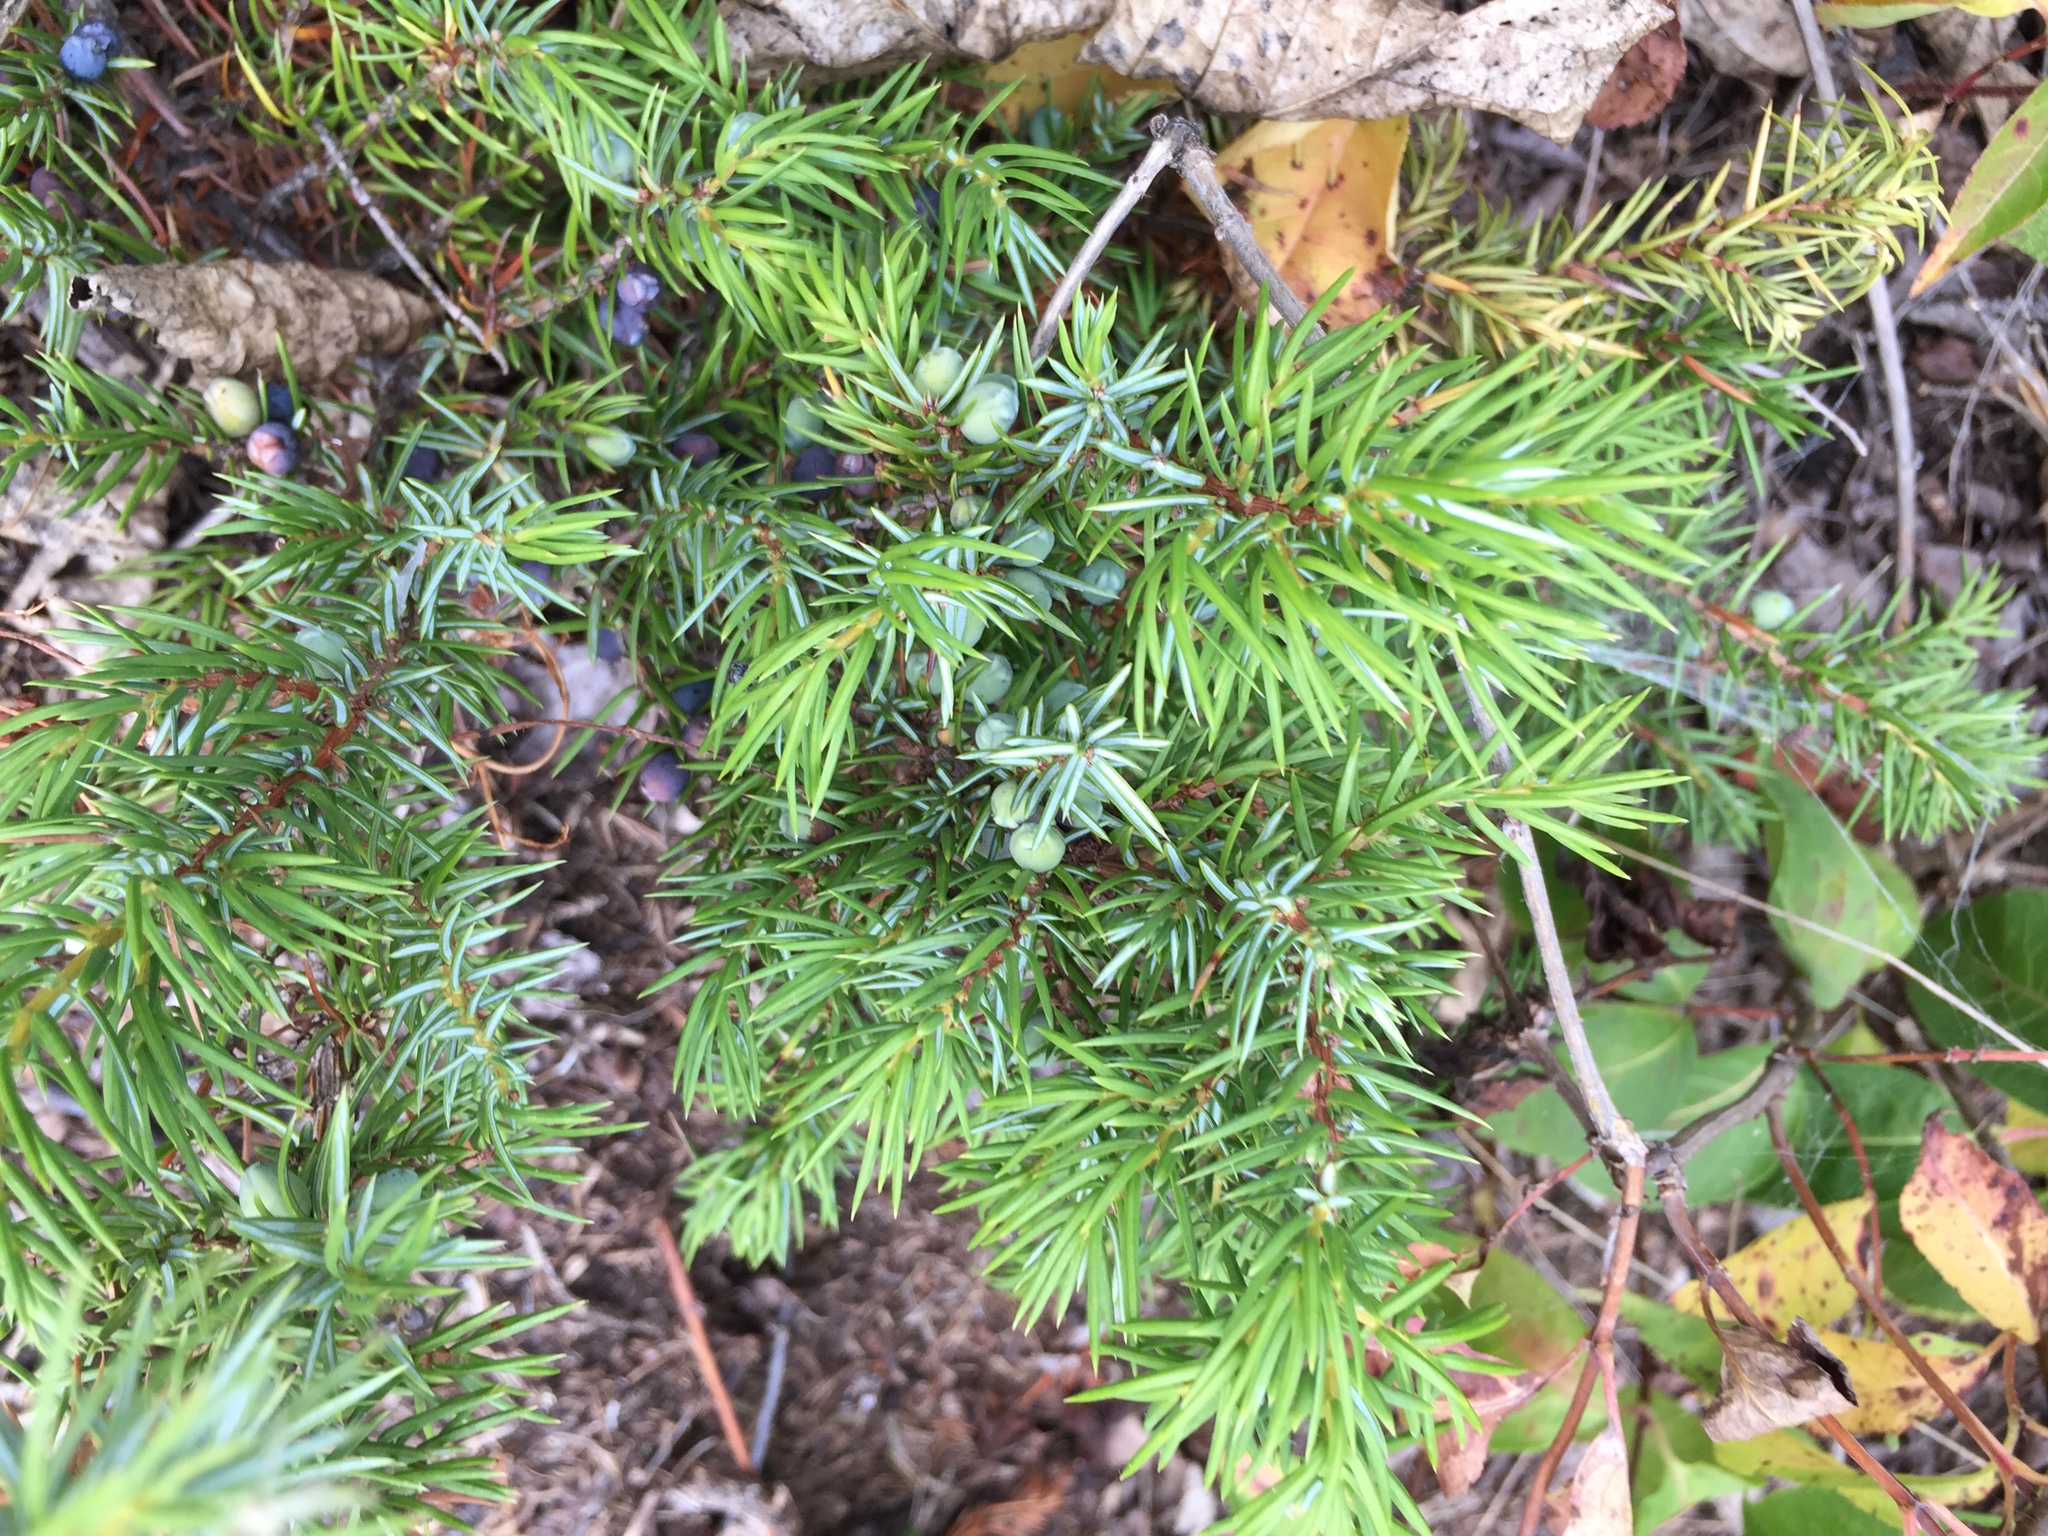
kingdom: Plantae
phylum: Tracheophyta
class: Pinopsida
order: Pinales
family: Cupressaceae
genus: Juniperus
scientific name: Juniperus communis
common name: Common juniper
